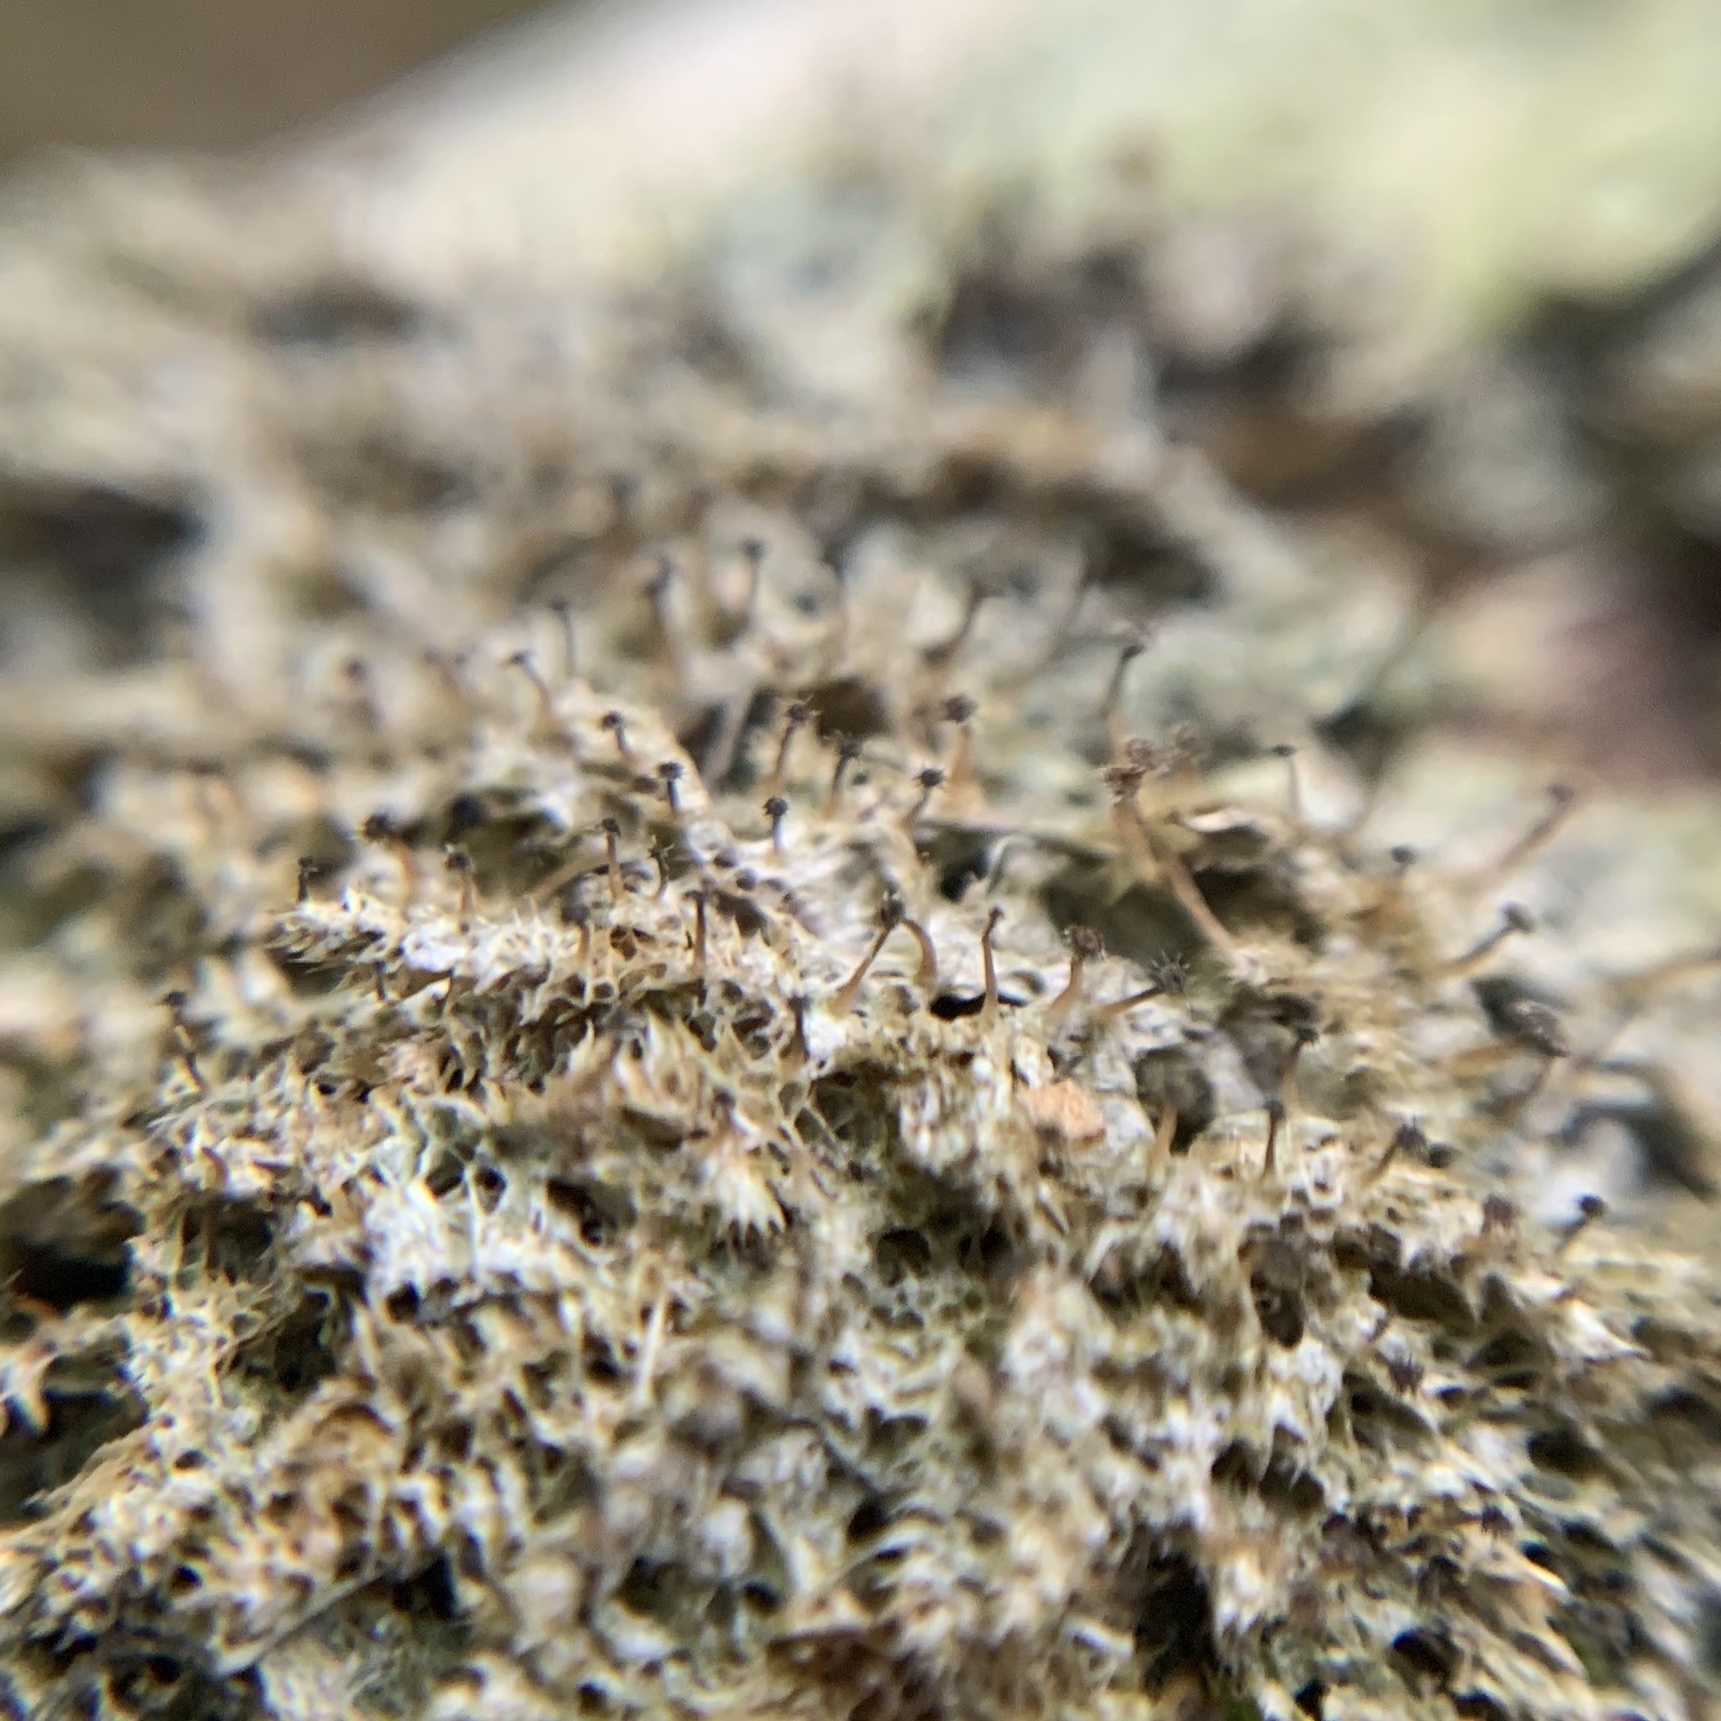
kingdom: Fungi
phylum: Ascomycota
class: Lecanoromycetes
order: Ostropales
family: Gomphillaceae
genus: Gomphillus
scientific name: Gomphillus americanus
